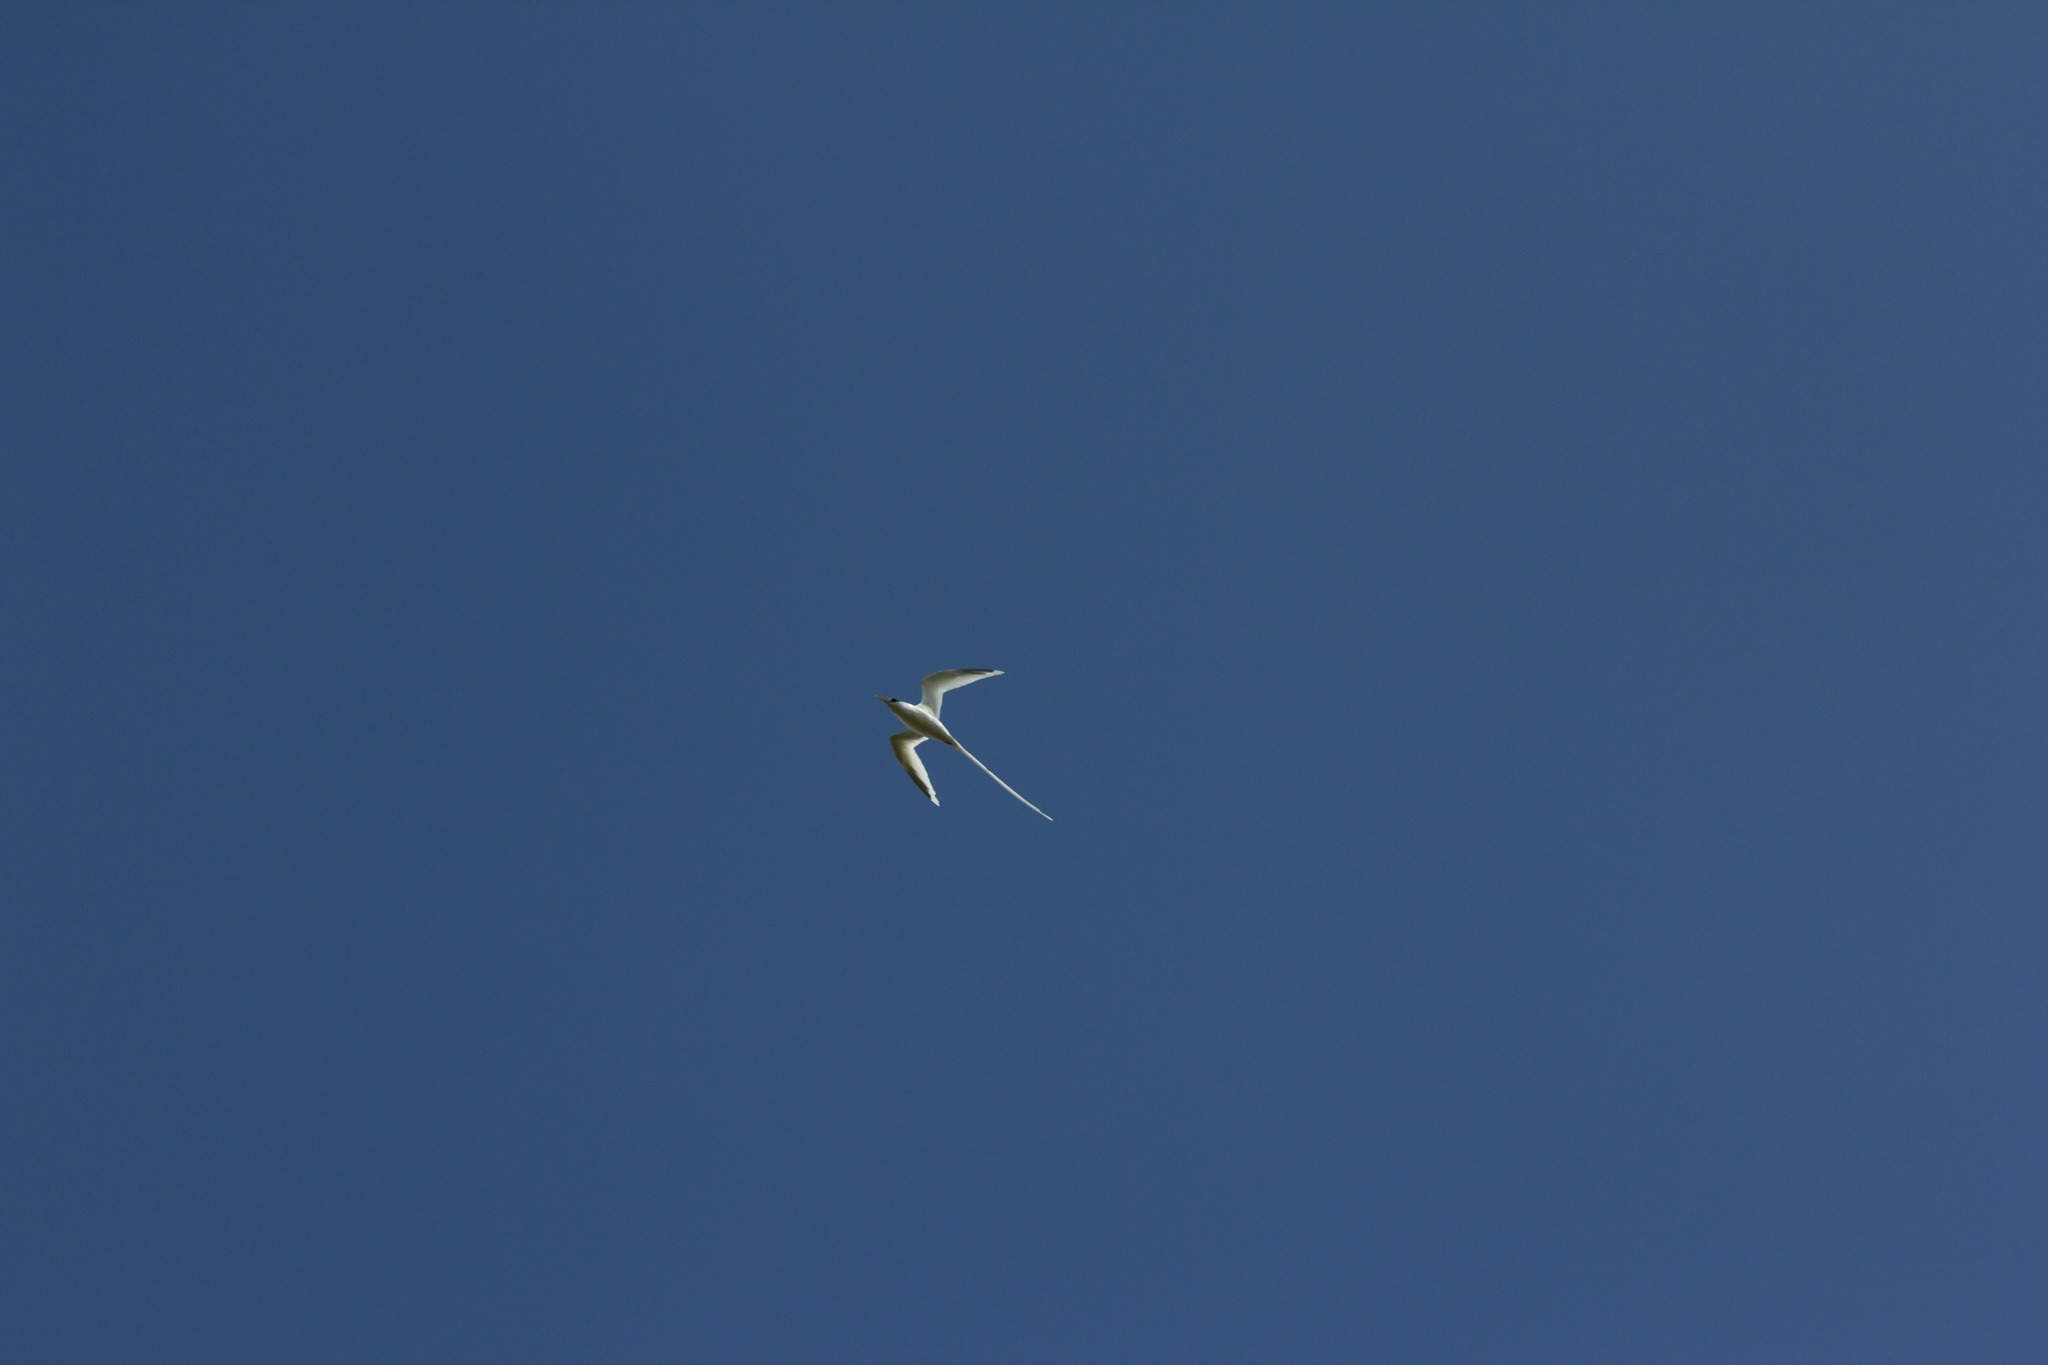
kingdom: Animalia
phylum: Chordata
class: Aves
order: Phaethontiformes
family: Phaethontidae
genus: Phaethon
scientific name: Phaethon lepturus
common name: White-tailed tropicbird
